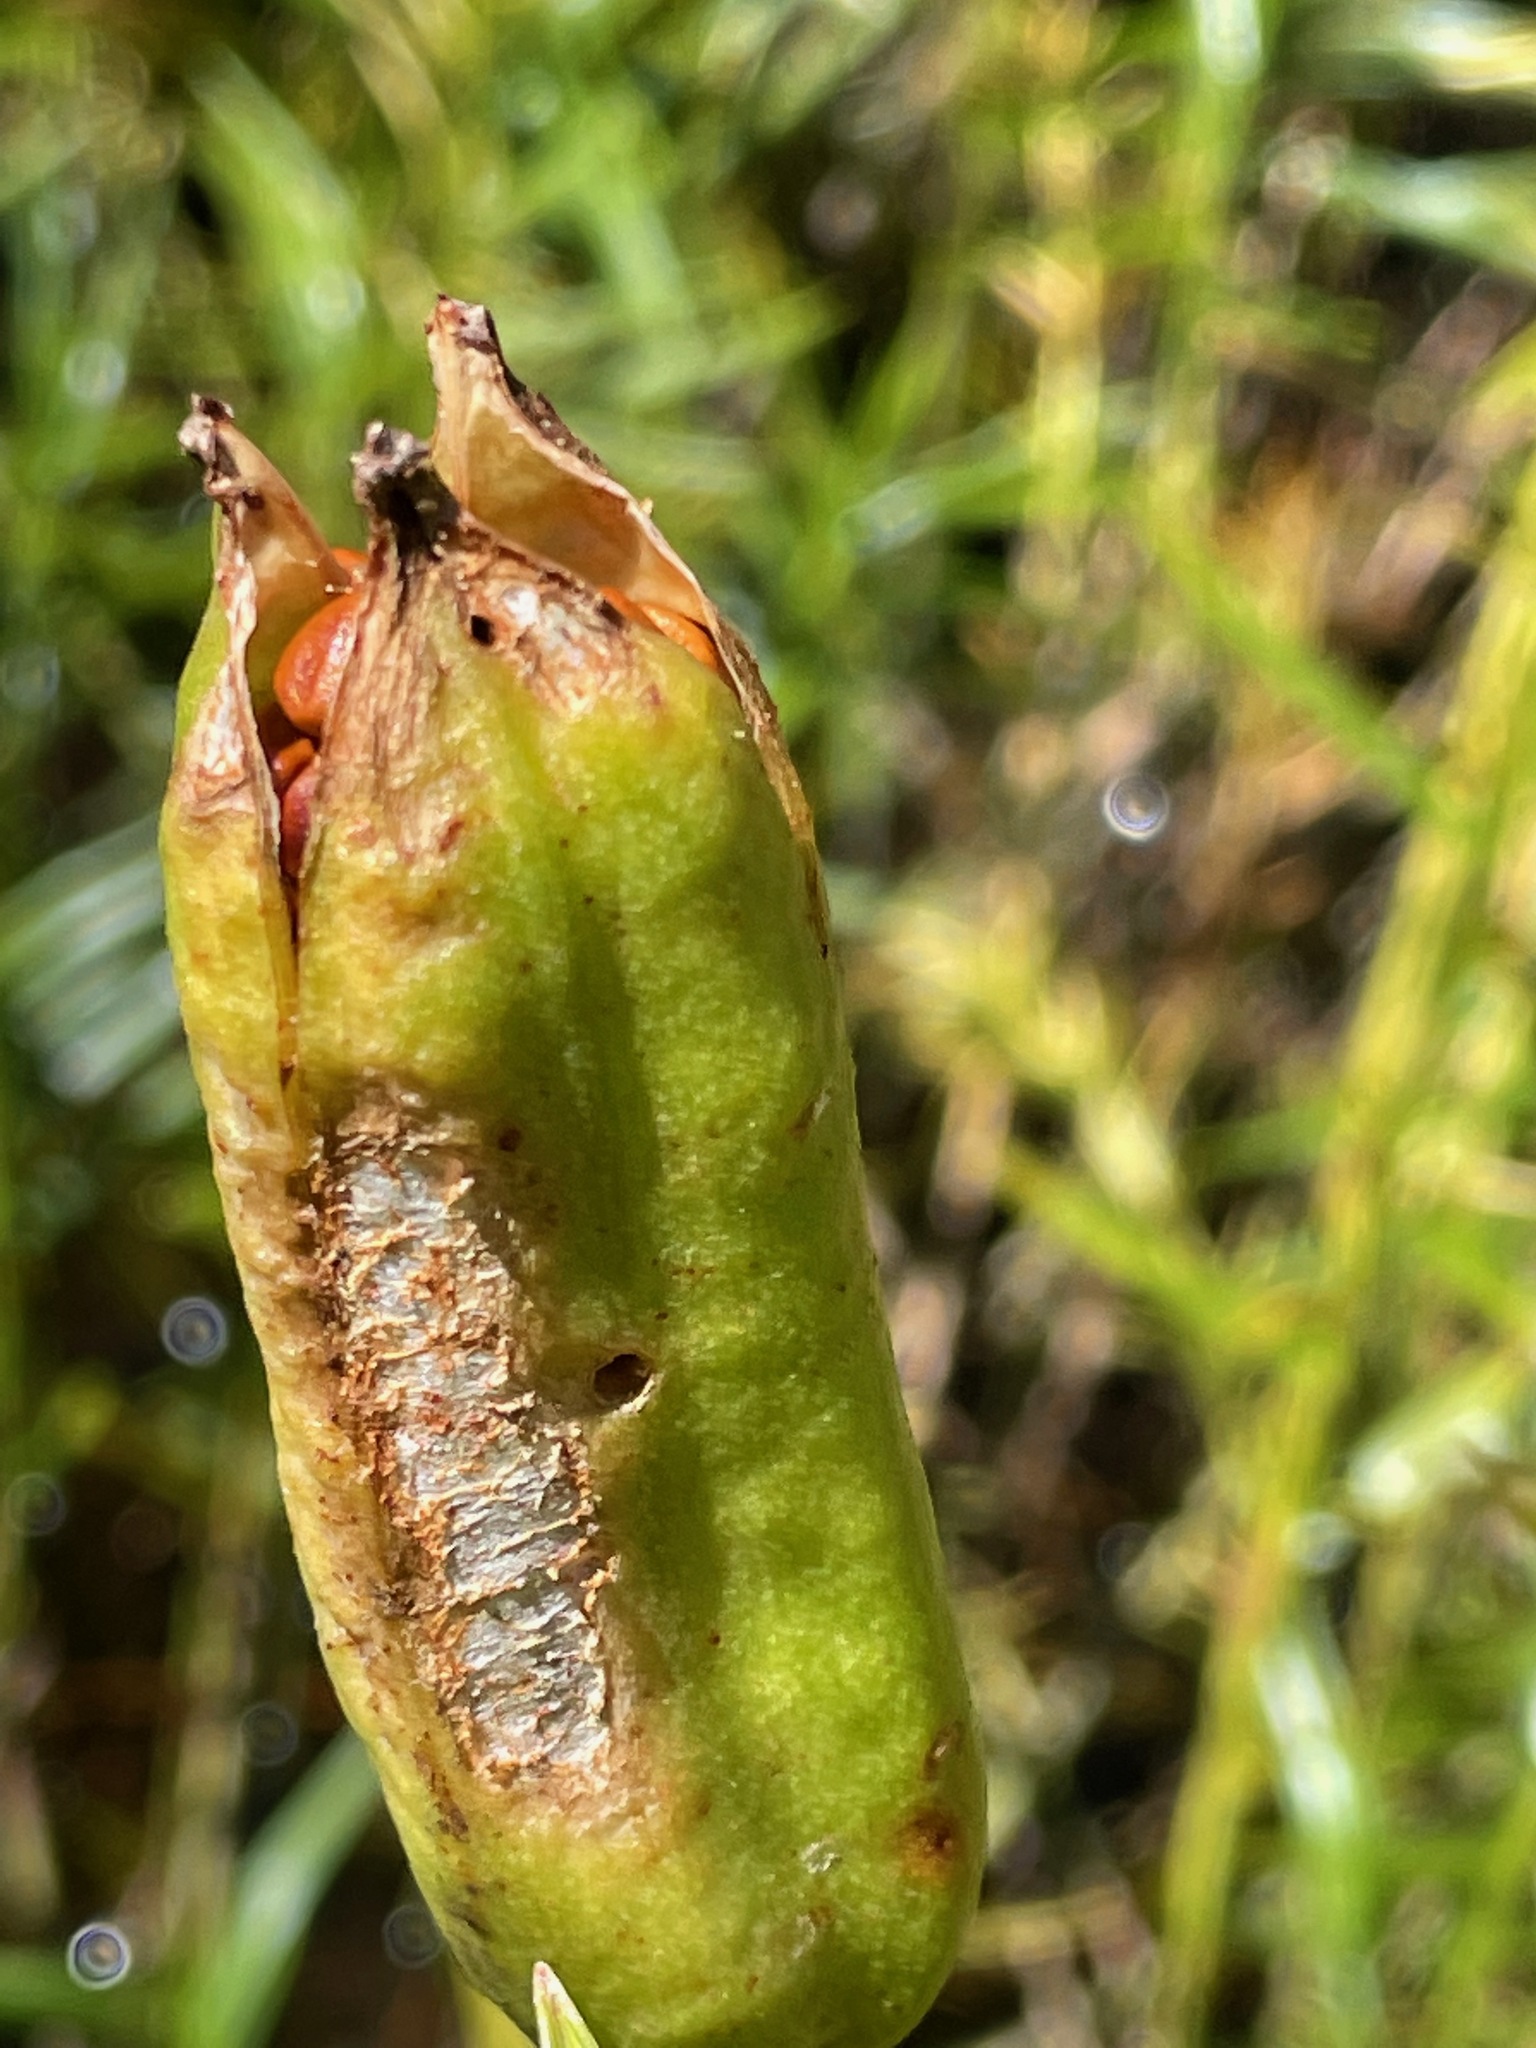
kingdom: Plantae
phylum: Tracheophyta
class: Liliopsida
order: Asparagales
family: Iridaceae
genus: Iris
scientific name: Iris versicolor
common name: Purple iris
